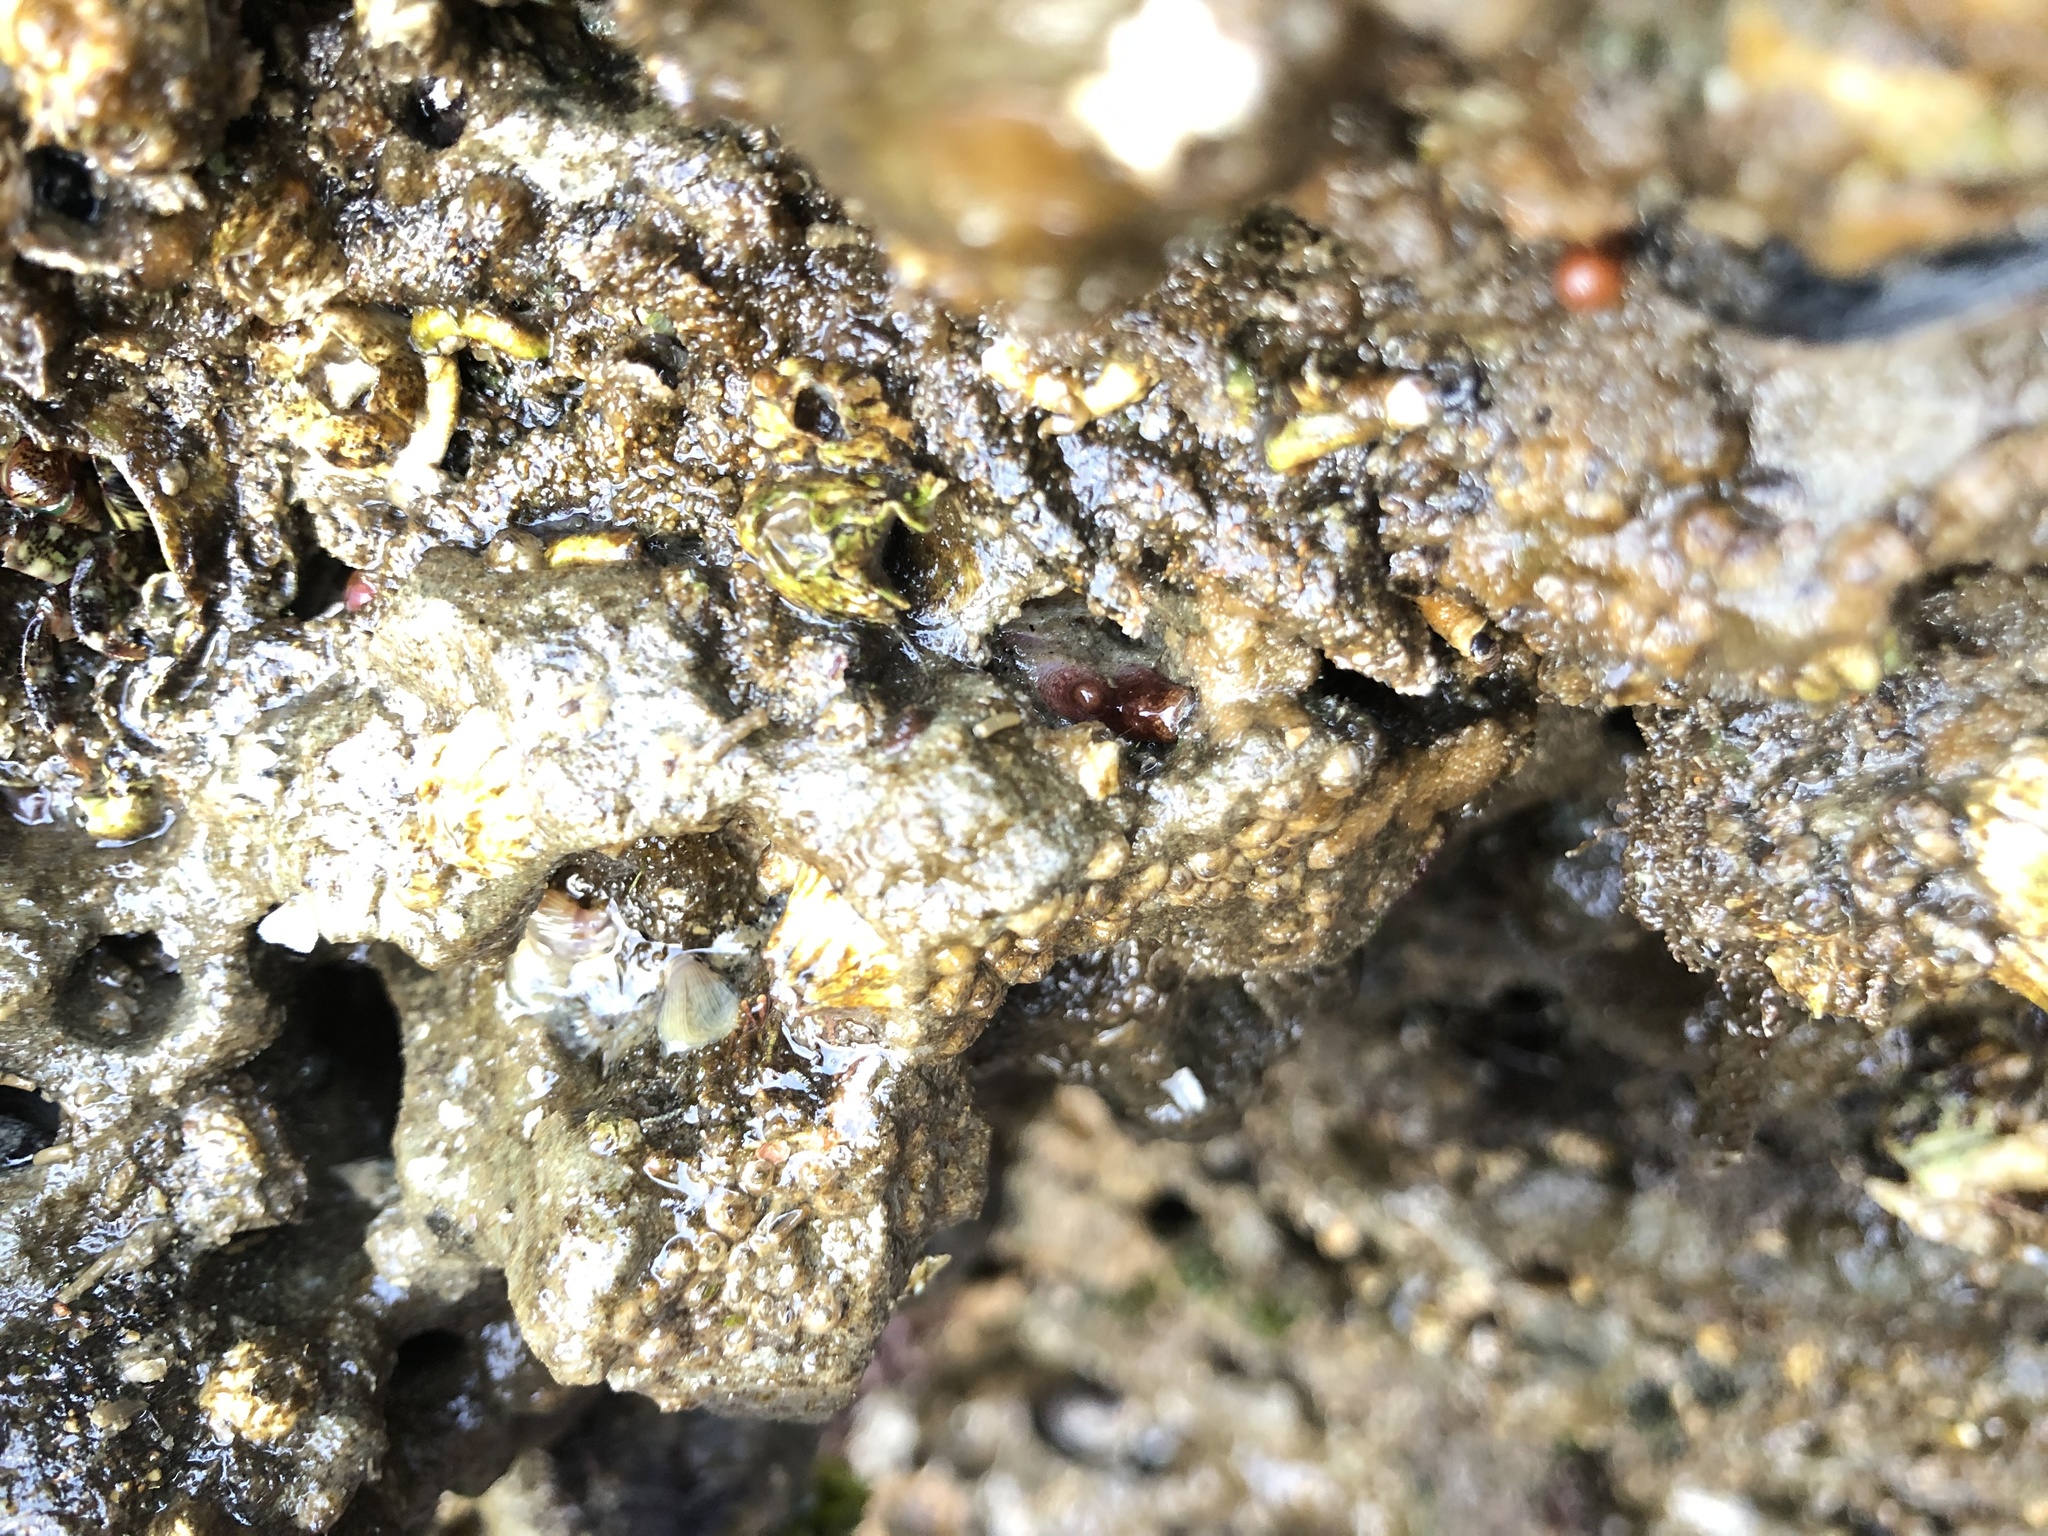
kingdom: Animalia
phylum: Mollusca
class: Bivalvia
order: Adapedonta
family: Hiatellidae
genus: Hiatella
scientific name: Hiatella arctica
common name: Arctic hiatella
